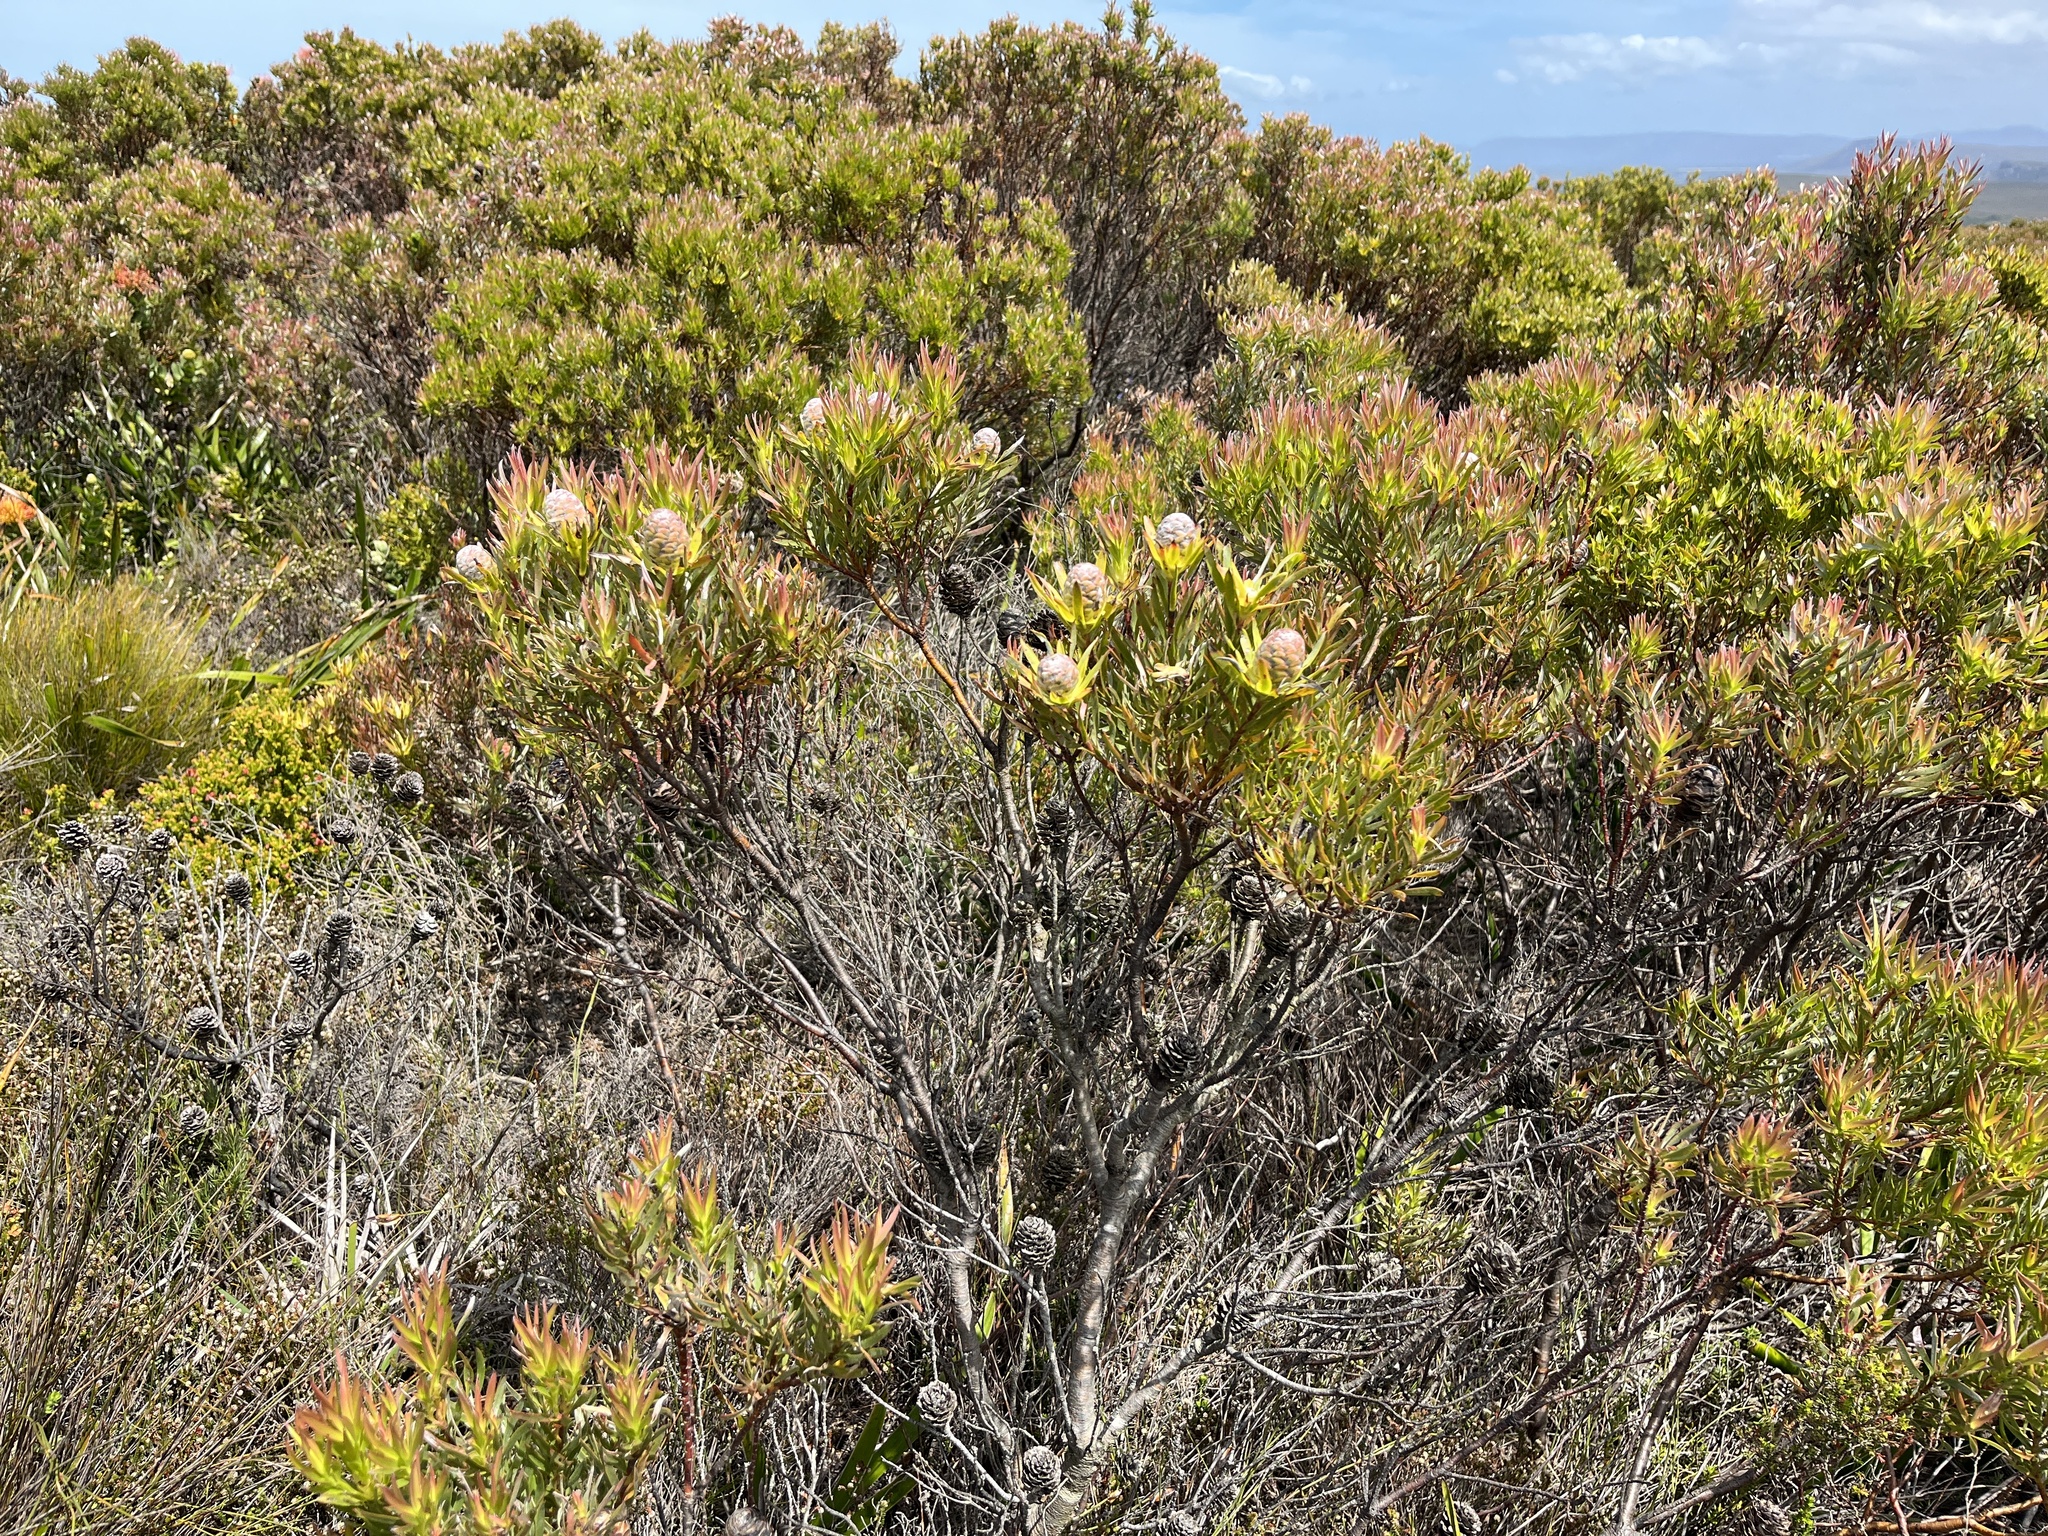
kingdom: Plantae
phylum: Tracheophyta
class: Magnoliopsida
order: Proteales
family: Proteaceae
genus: Leucadendron
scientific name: Leucadendron xanthoconus
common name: Sickle-leaf conebush
